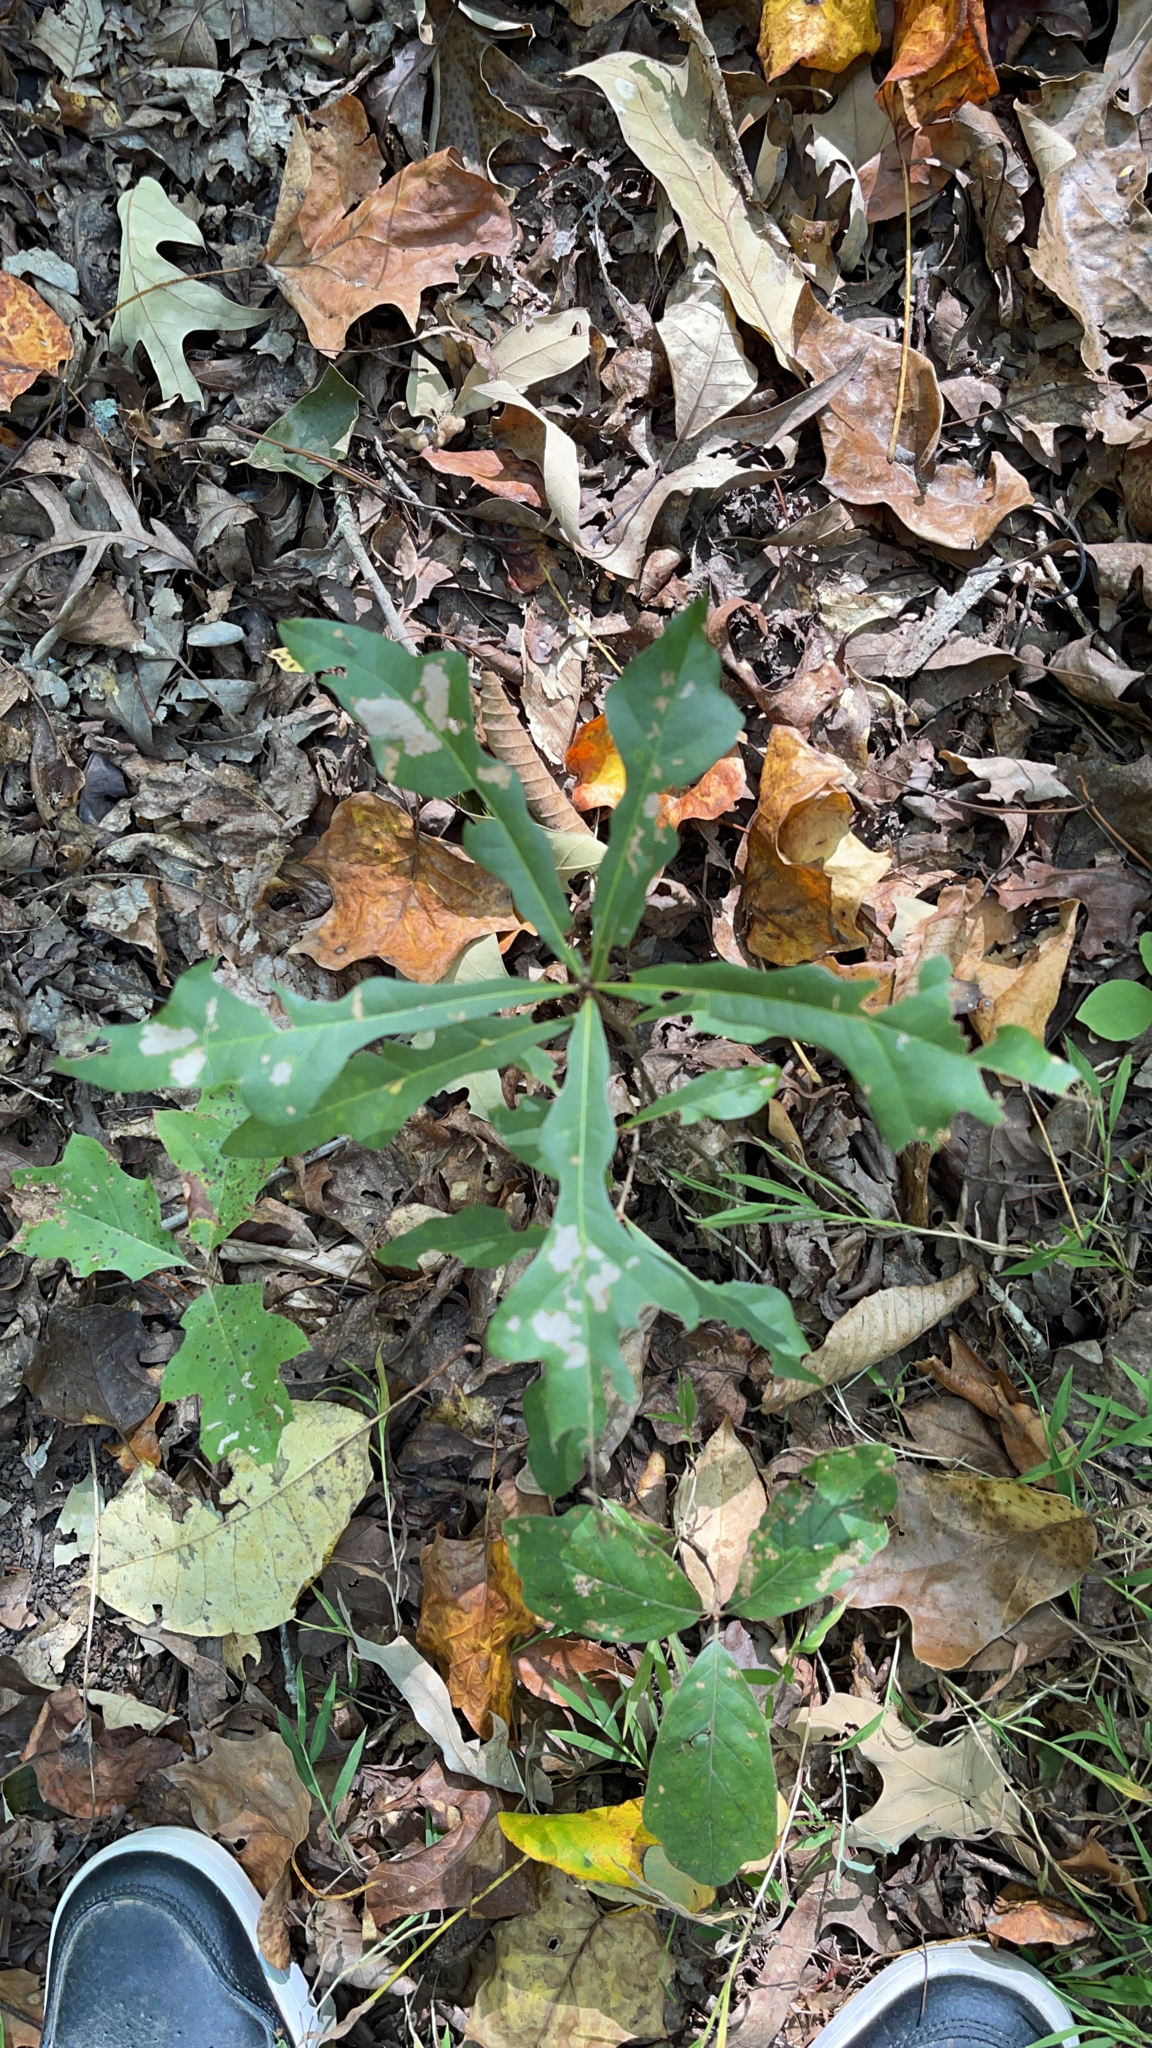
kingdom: Plantae
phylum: Tracheophyta
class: Magnoliopsida
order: Fagales
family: Fagaceae
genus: Quercus
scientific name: Quercus nigra
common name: Water oak
